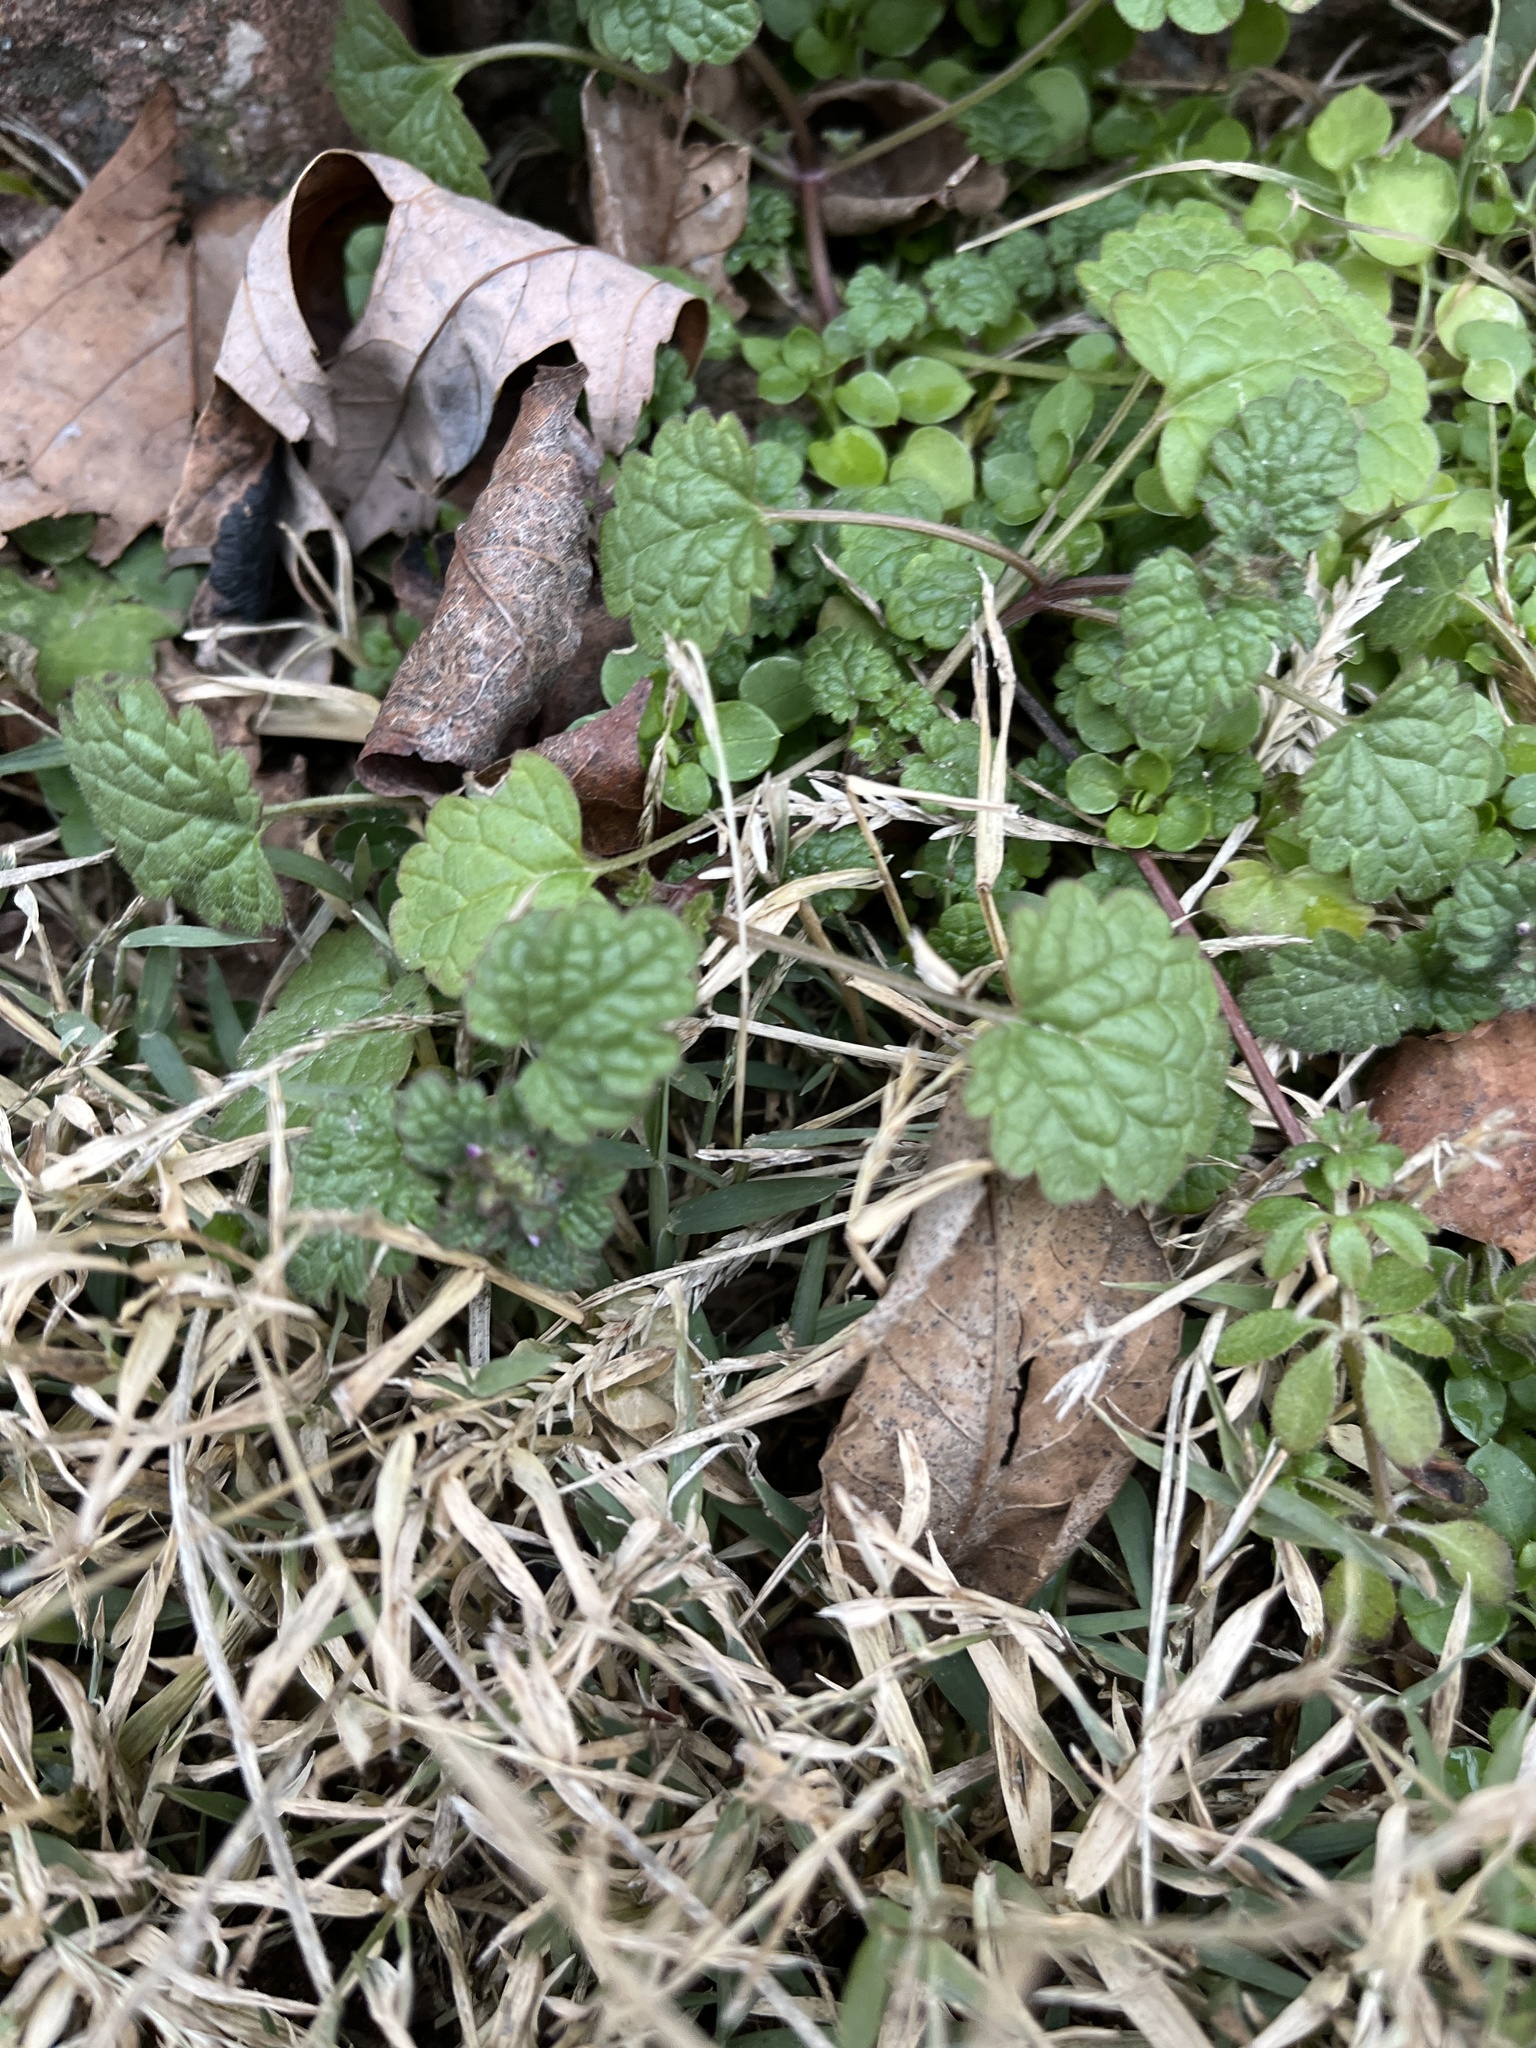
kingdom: Plantae
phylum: Tracheophyta
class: Magnoliopsida
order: Lamiales
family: Lamiaceae
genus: Lamium
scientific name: Lamium purpureum
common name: Red dead-nettle
